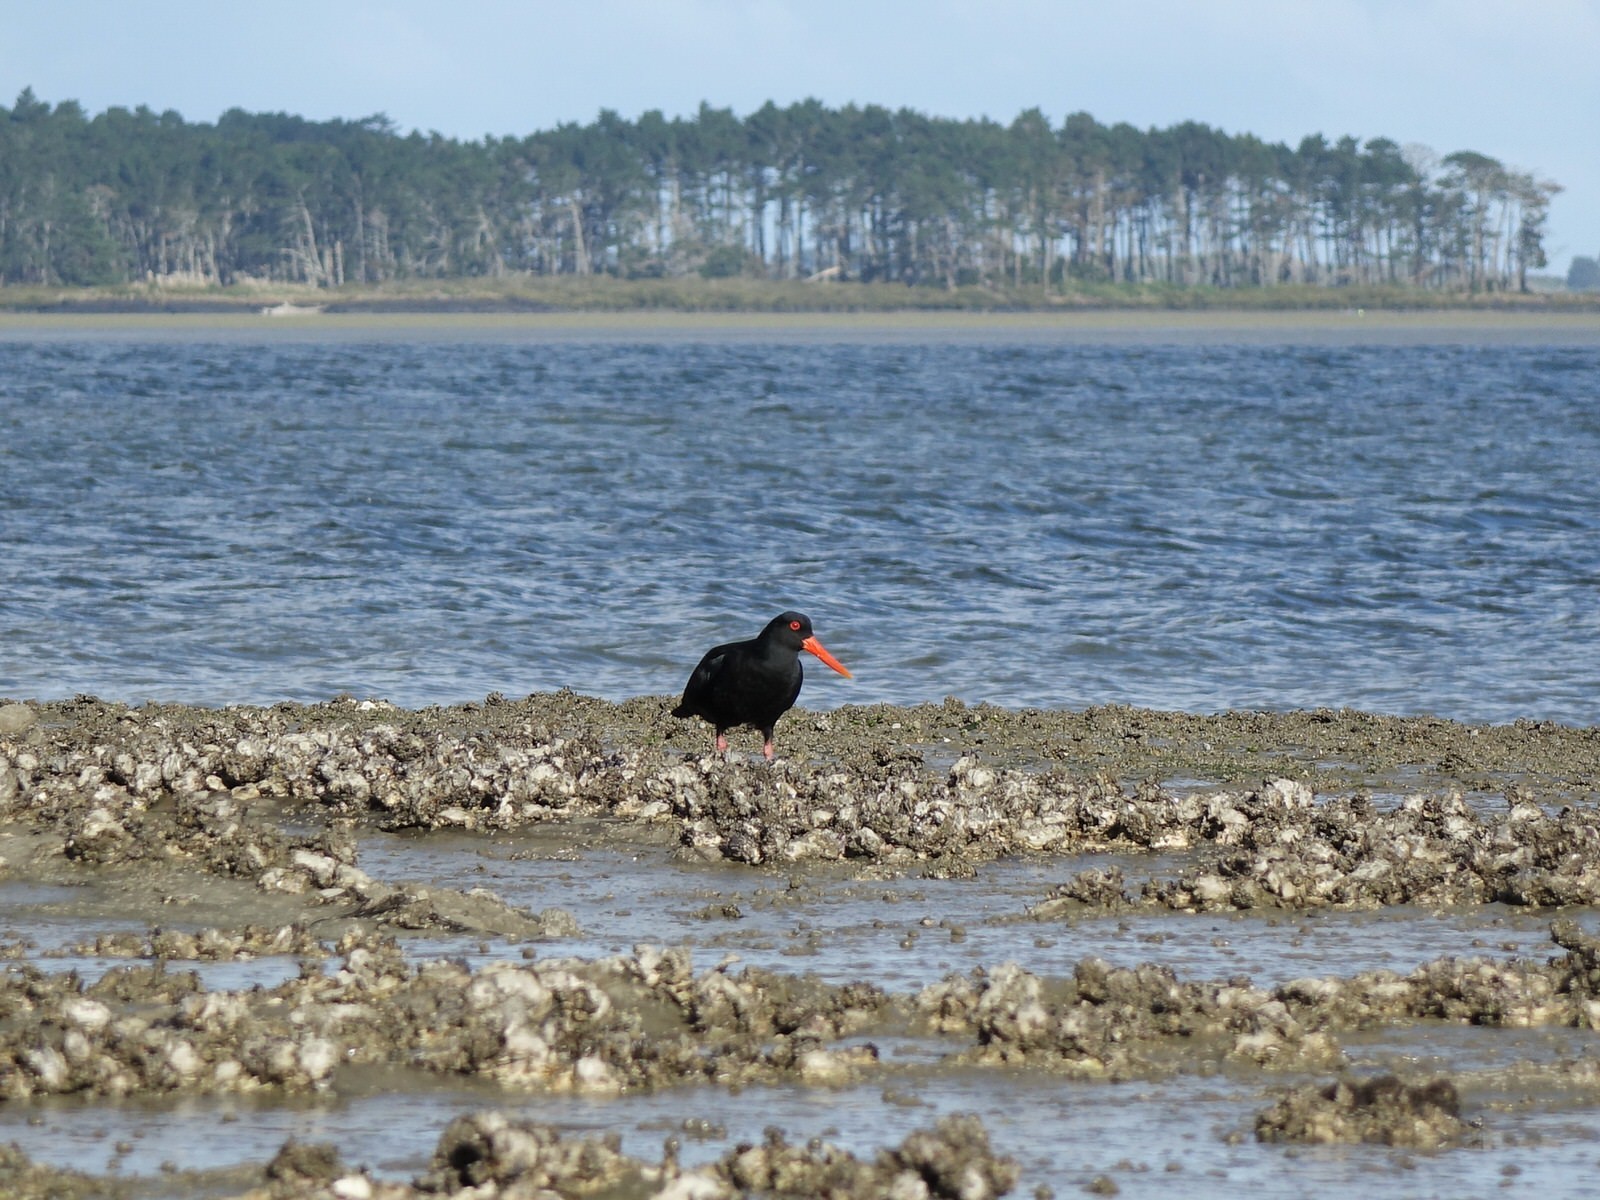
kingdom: Animalia
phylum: Chordata
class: Aves
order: Charadriiformes
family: Haematopodidae
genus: Haematopus
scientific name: Haematopus unicolor
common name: Variable oystercatcher
